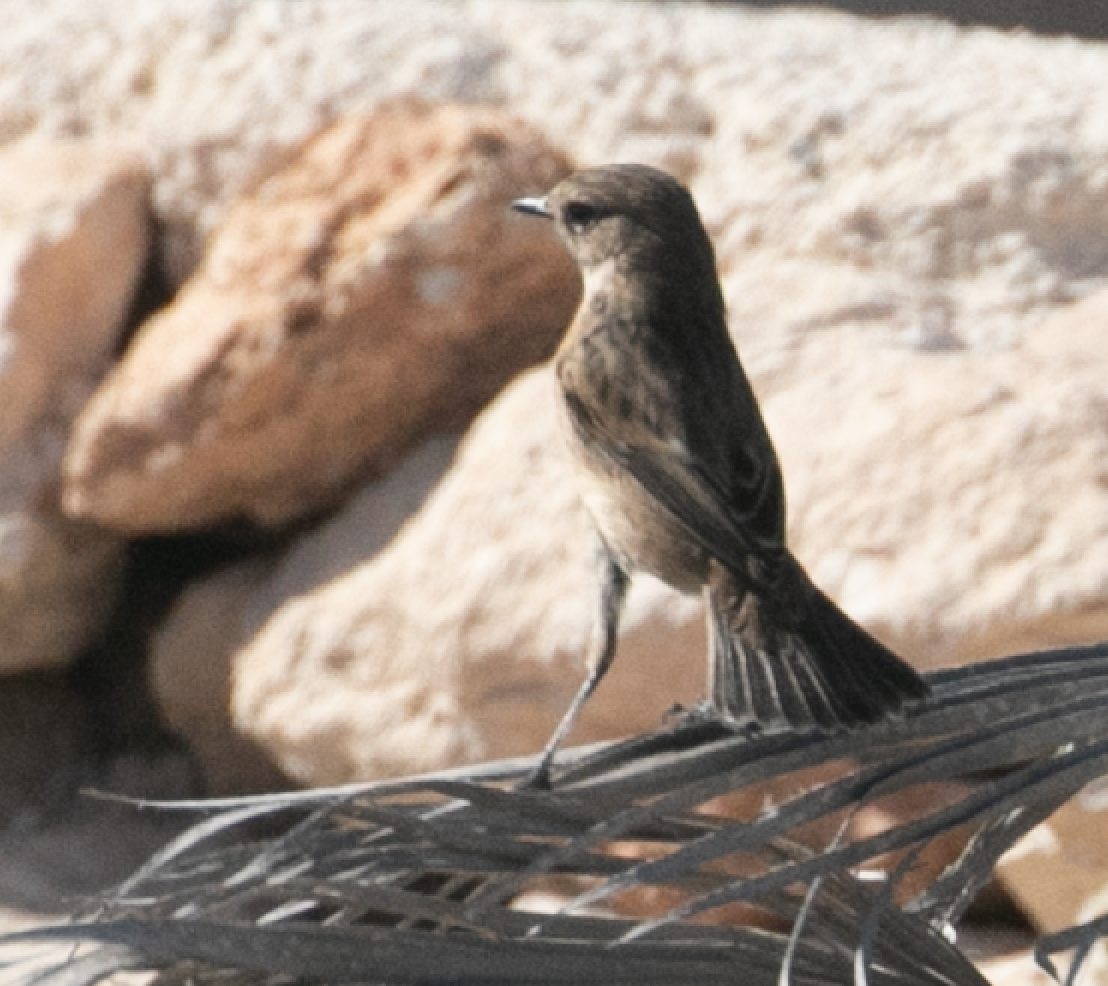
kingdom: Animalia
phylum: Chordata
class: Aves
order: Passeriformes
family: Muscicapidae
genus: Saxicola
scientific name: Saxicola rubicola
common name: European stonechat
